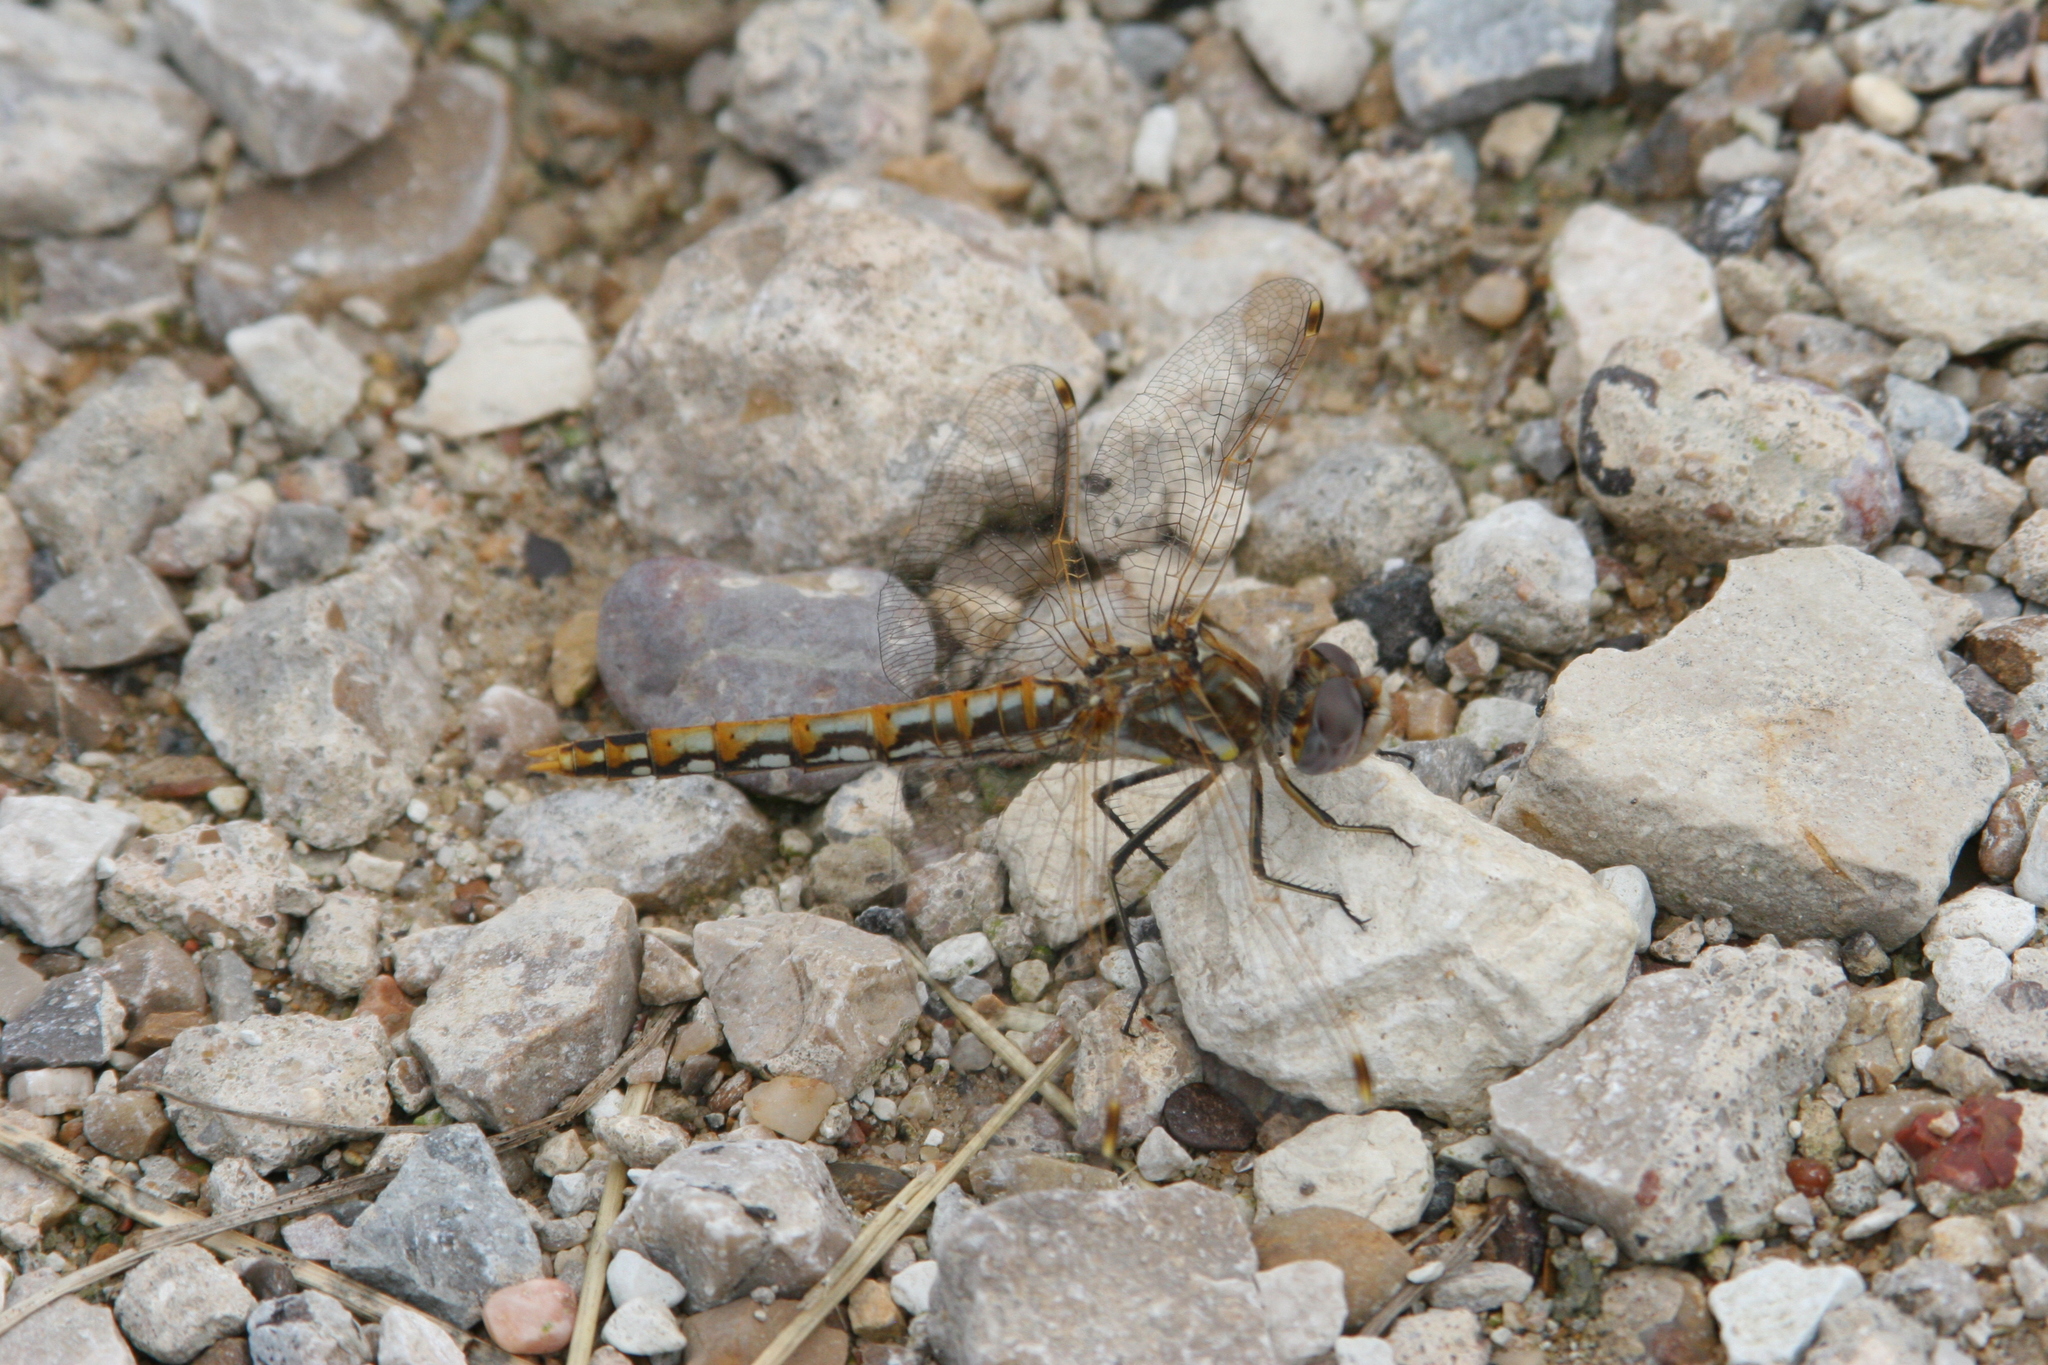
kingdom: Animalia
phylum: Arthropoda
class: Insecta
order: Odonata
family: Libellulidae
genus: Sympetrum
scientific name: Sympetrum corruptum
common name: Variegated meadowhawk
